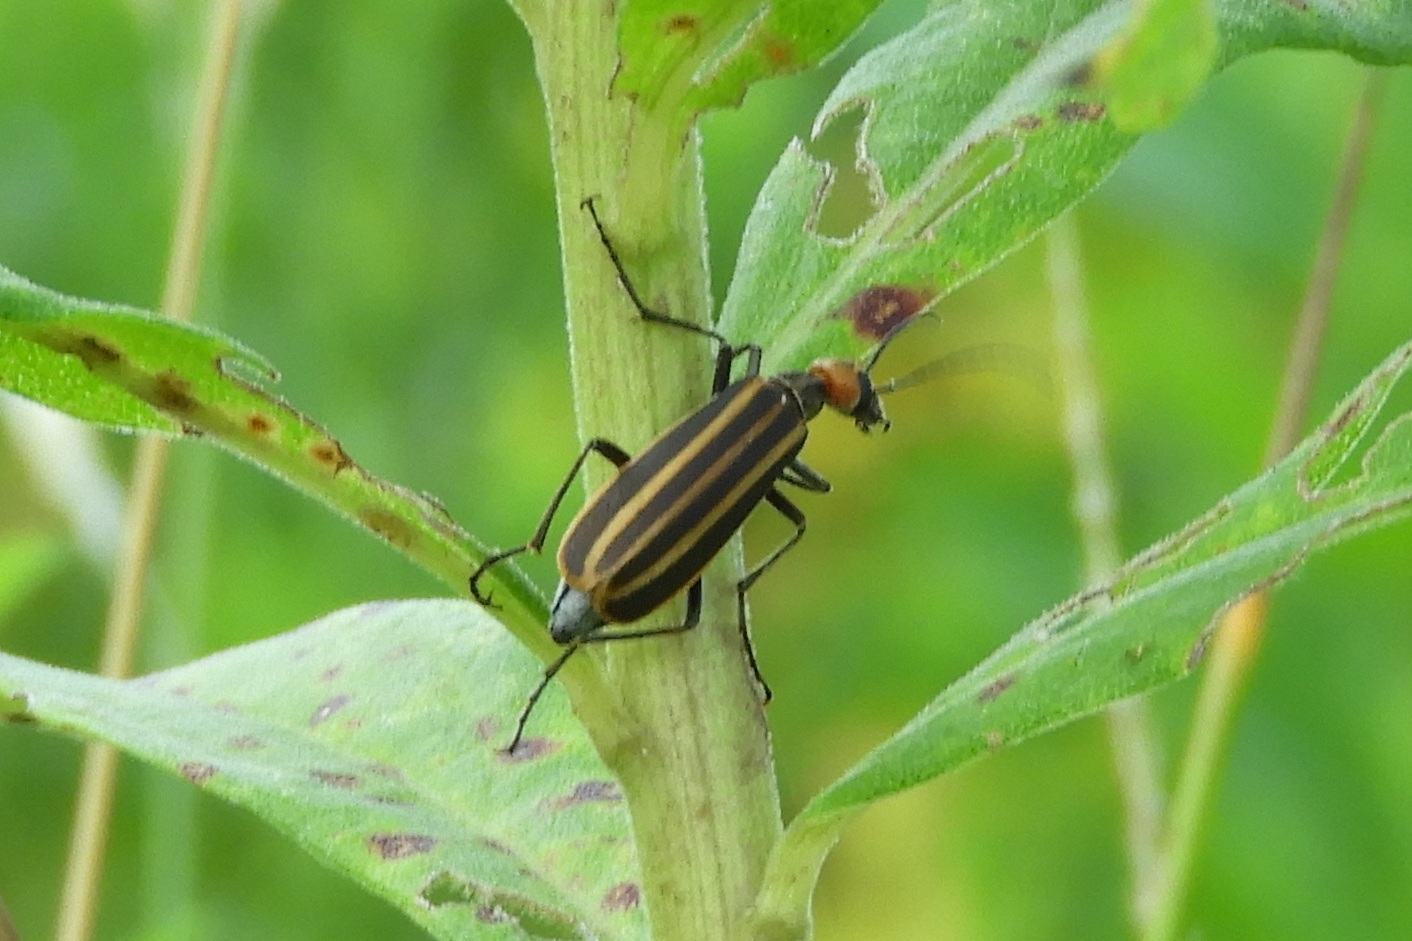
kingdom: Animalia
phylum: Arthropoda
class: Insecta
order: Coleoptera
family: Meloidae
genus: Epicauta
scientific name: Epicauta vittata
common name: Old-fashioned potato beetle
